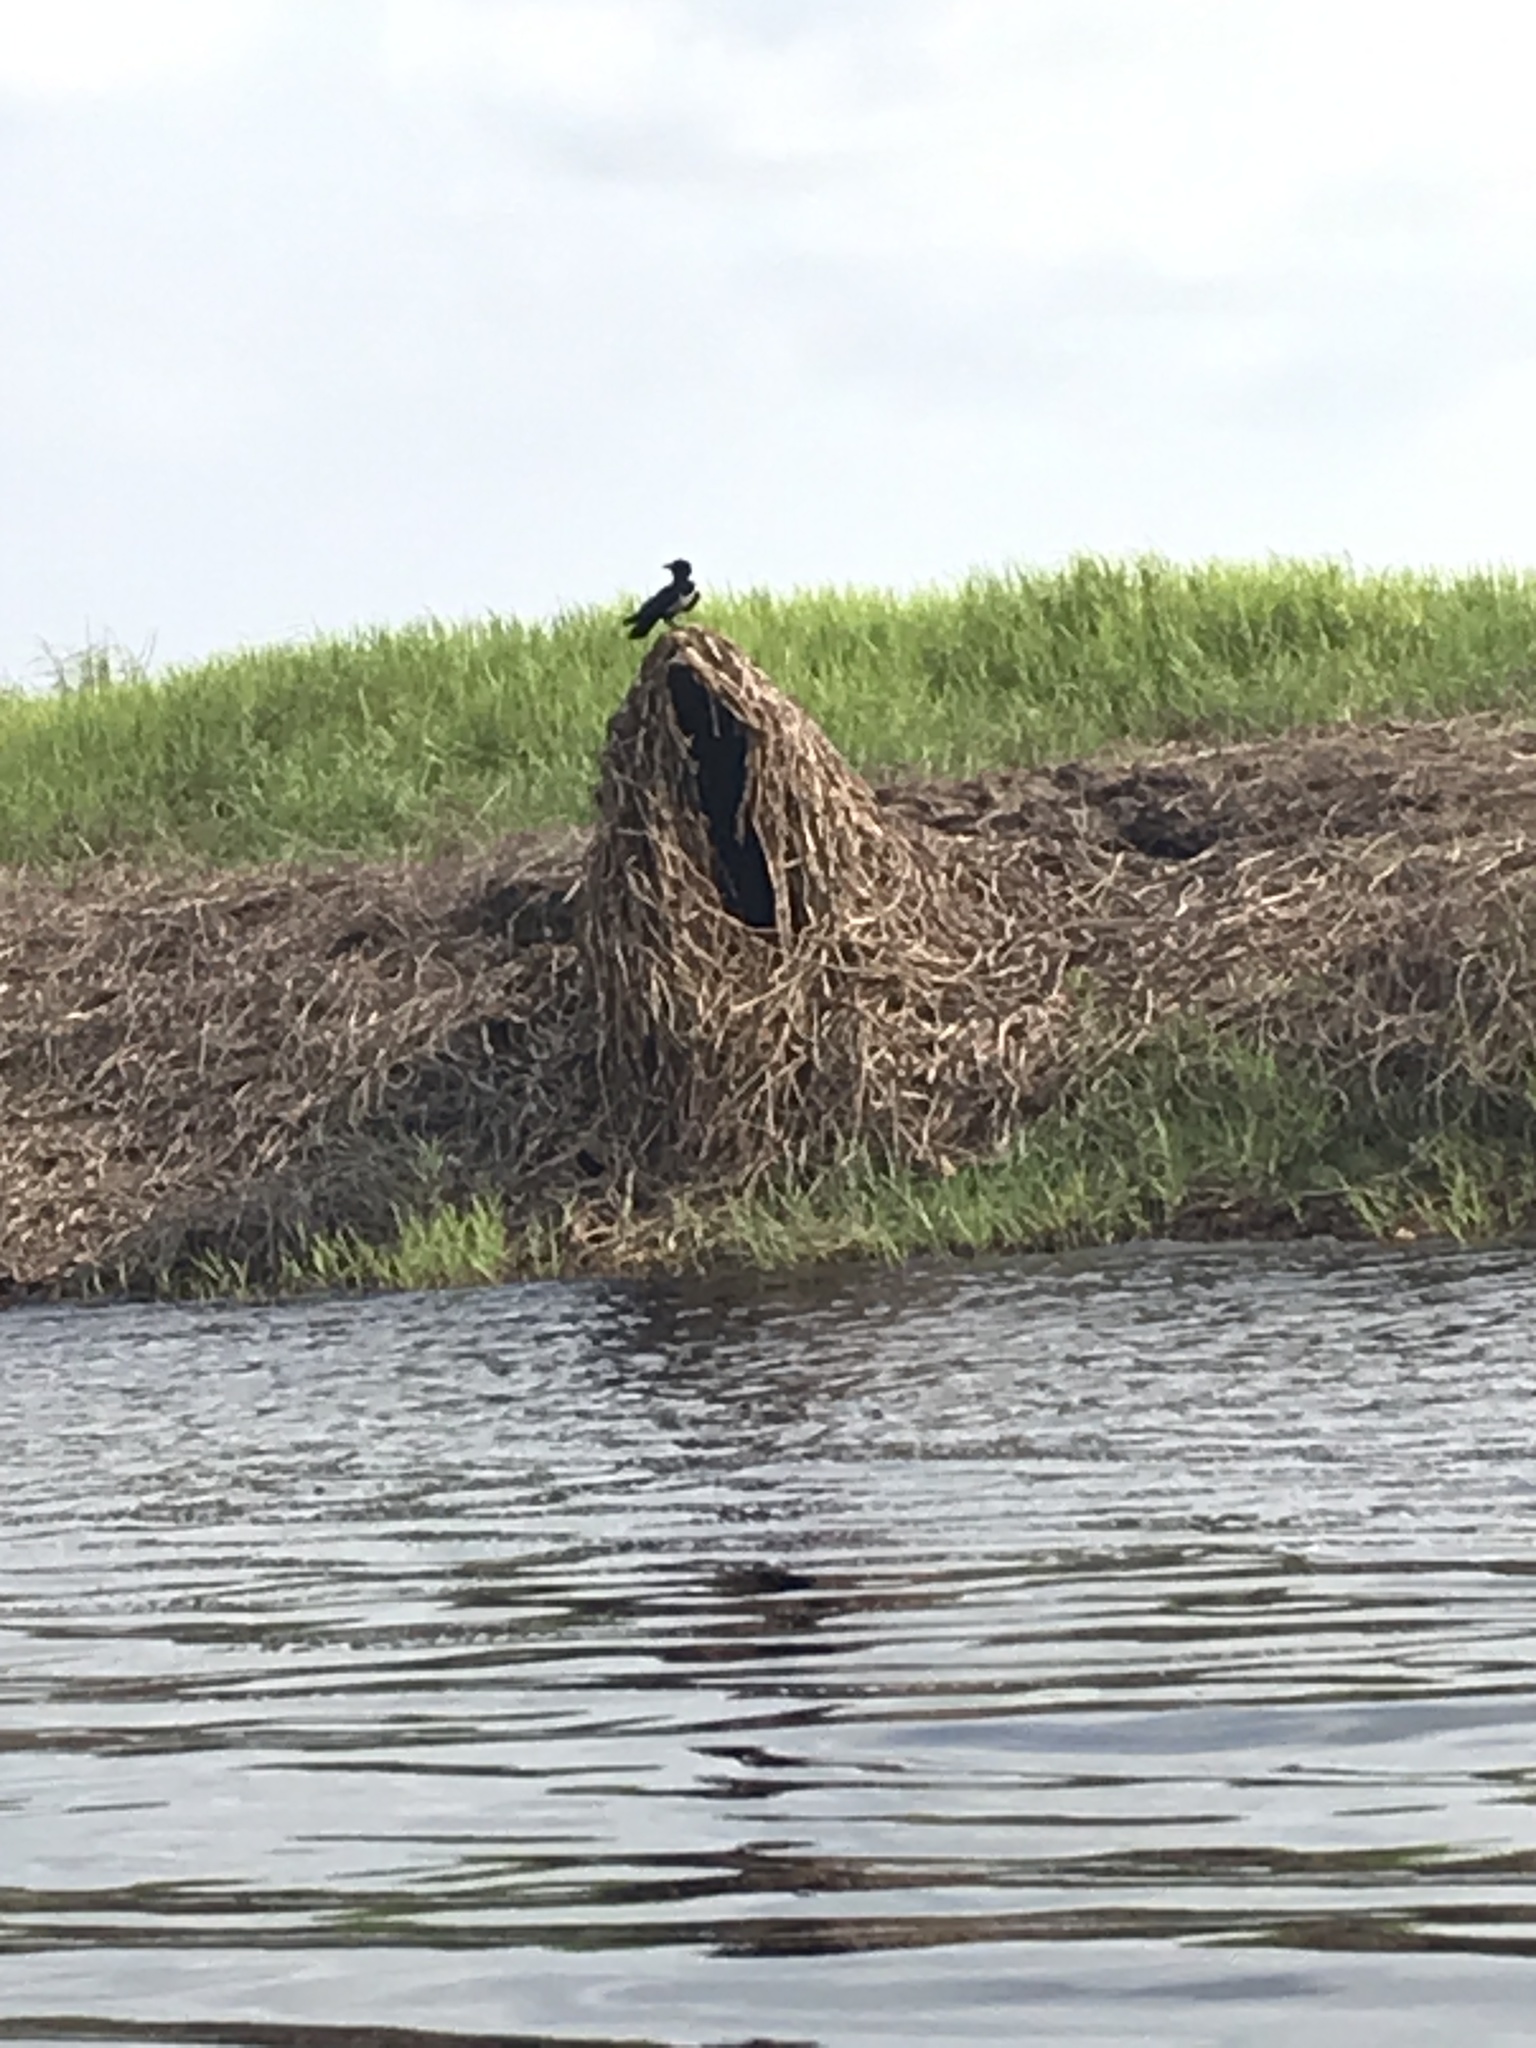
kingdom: Animalia
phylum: Chordata
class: Aves
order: Passeriformes
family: Corvidae
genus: Corvus
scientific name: Corvus albus
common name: Pied crow
